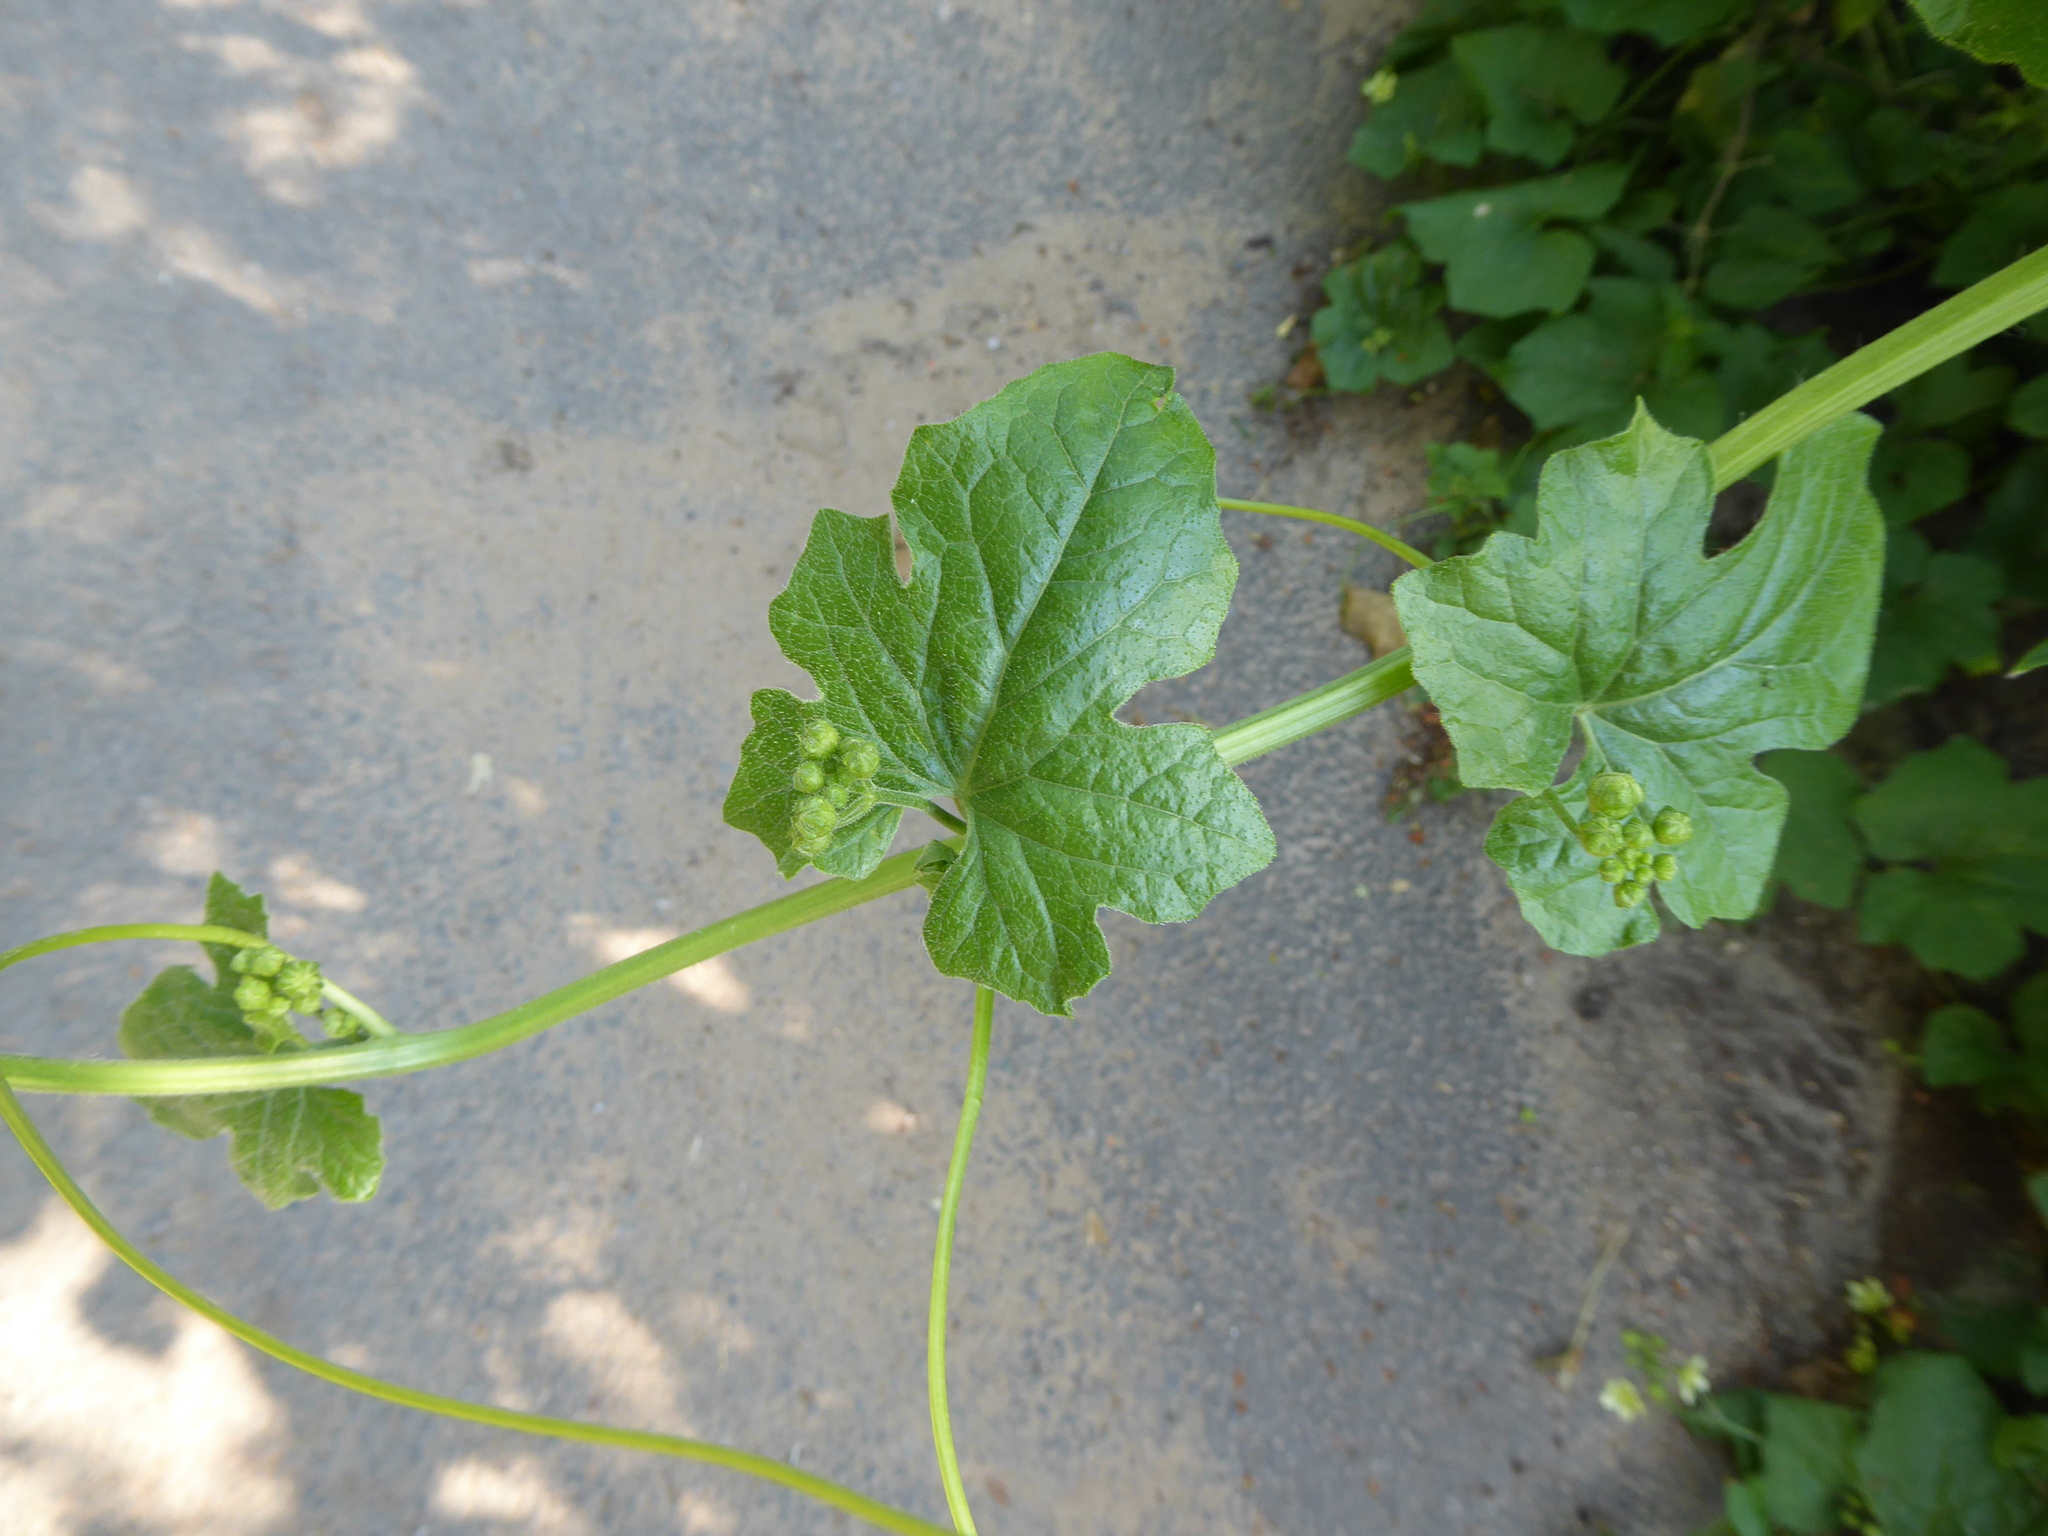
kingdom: Plantae
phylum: Tracheophyta
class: Magnoliopsida
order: Cucurbitales
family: Cucurbitaceae
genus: Bryonia
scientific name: Bryonia cretica
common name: Cretan bryony
